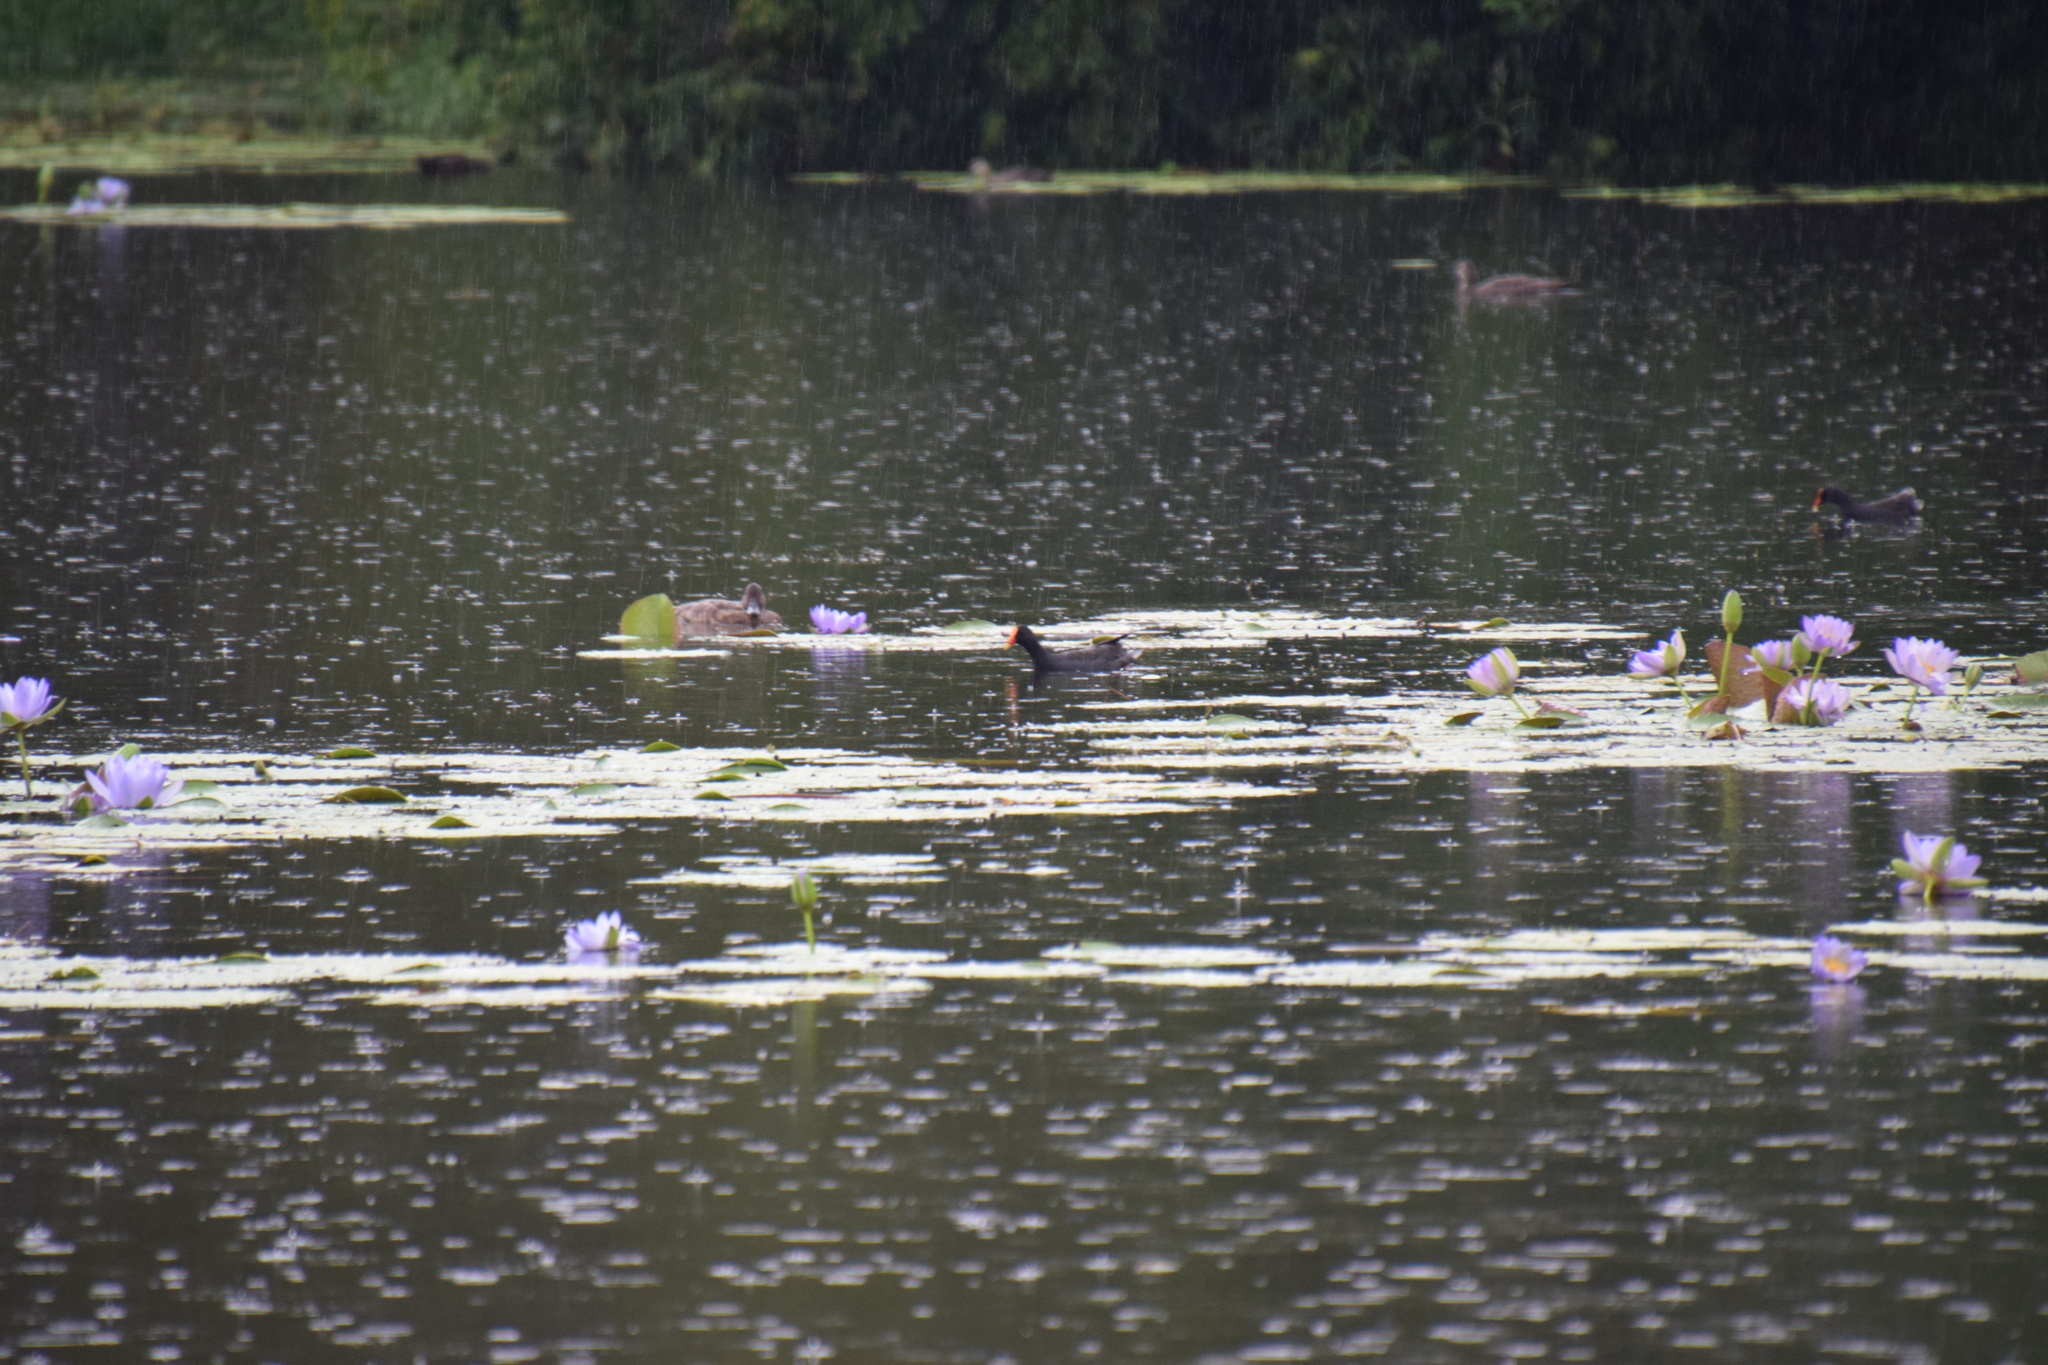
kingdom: Animalia
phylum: Chordata
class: Aves
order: Gruiformes
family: Rallidae
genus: Gallinula
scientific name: Gallinula tenebrosa
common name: Dusky moorhen
